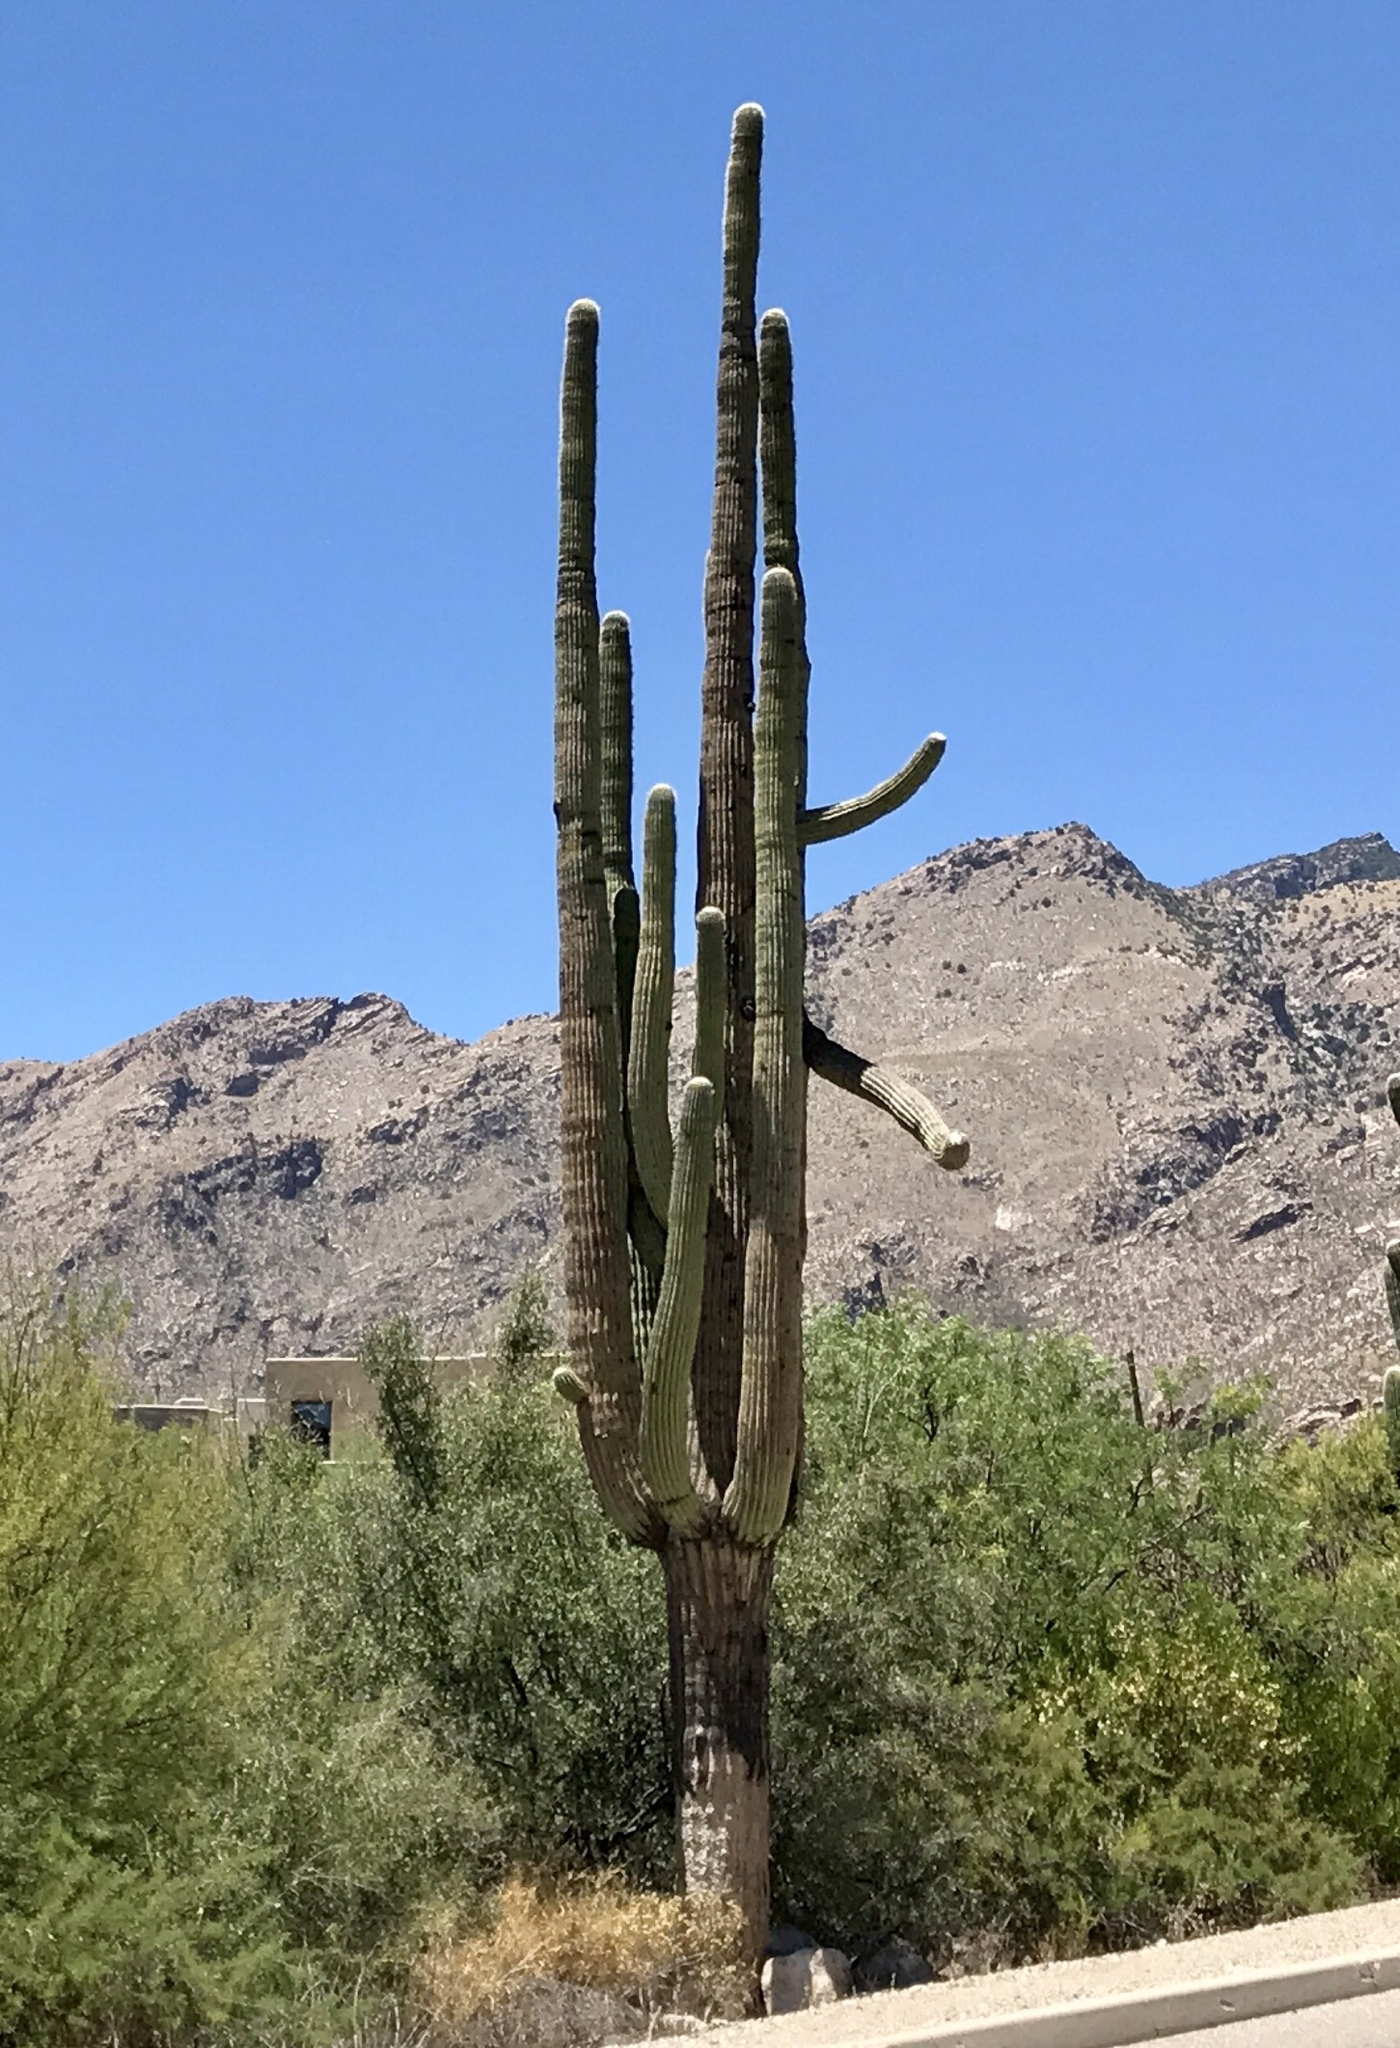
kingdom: Plantae
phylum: Tracheophyta
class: Magnoliopsida
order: Caryophyllales
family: Cactaceae
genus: Carnegiea
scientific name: Carnegiea gigantea
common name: Saguaro
